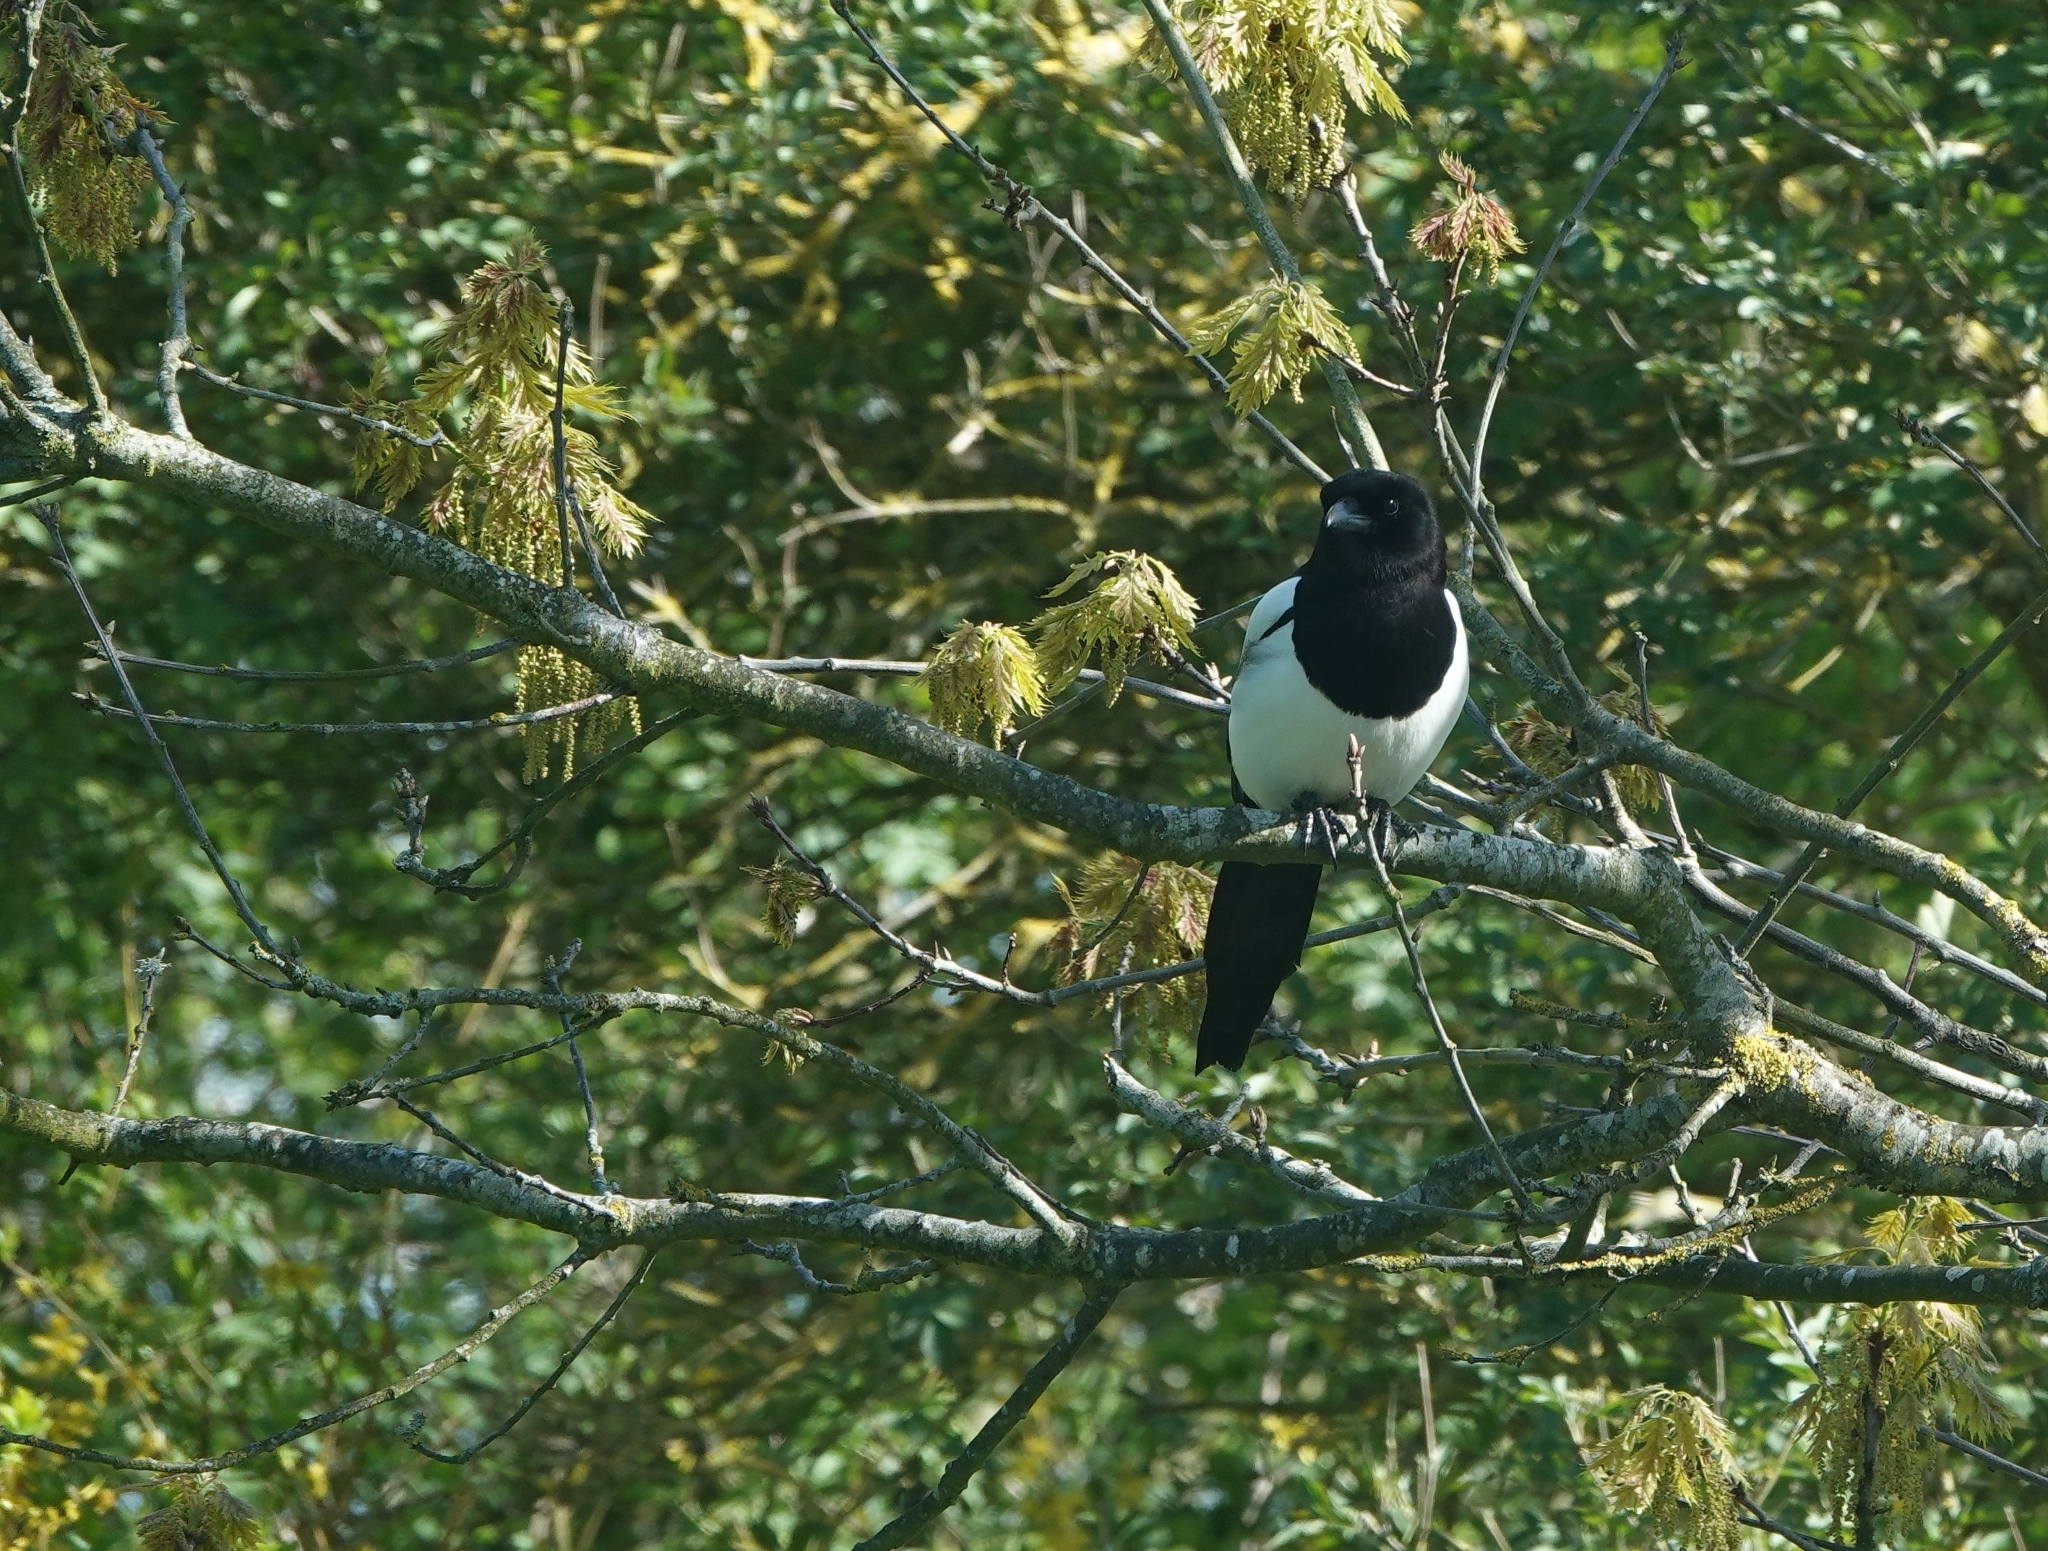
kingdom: Animalia
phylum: Chordata
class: Aves
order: Passeriformes
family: Corvidae
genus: Pica
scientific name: Pica pica
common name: Eurasian magpie
